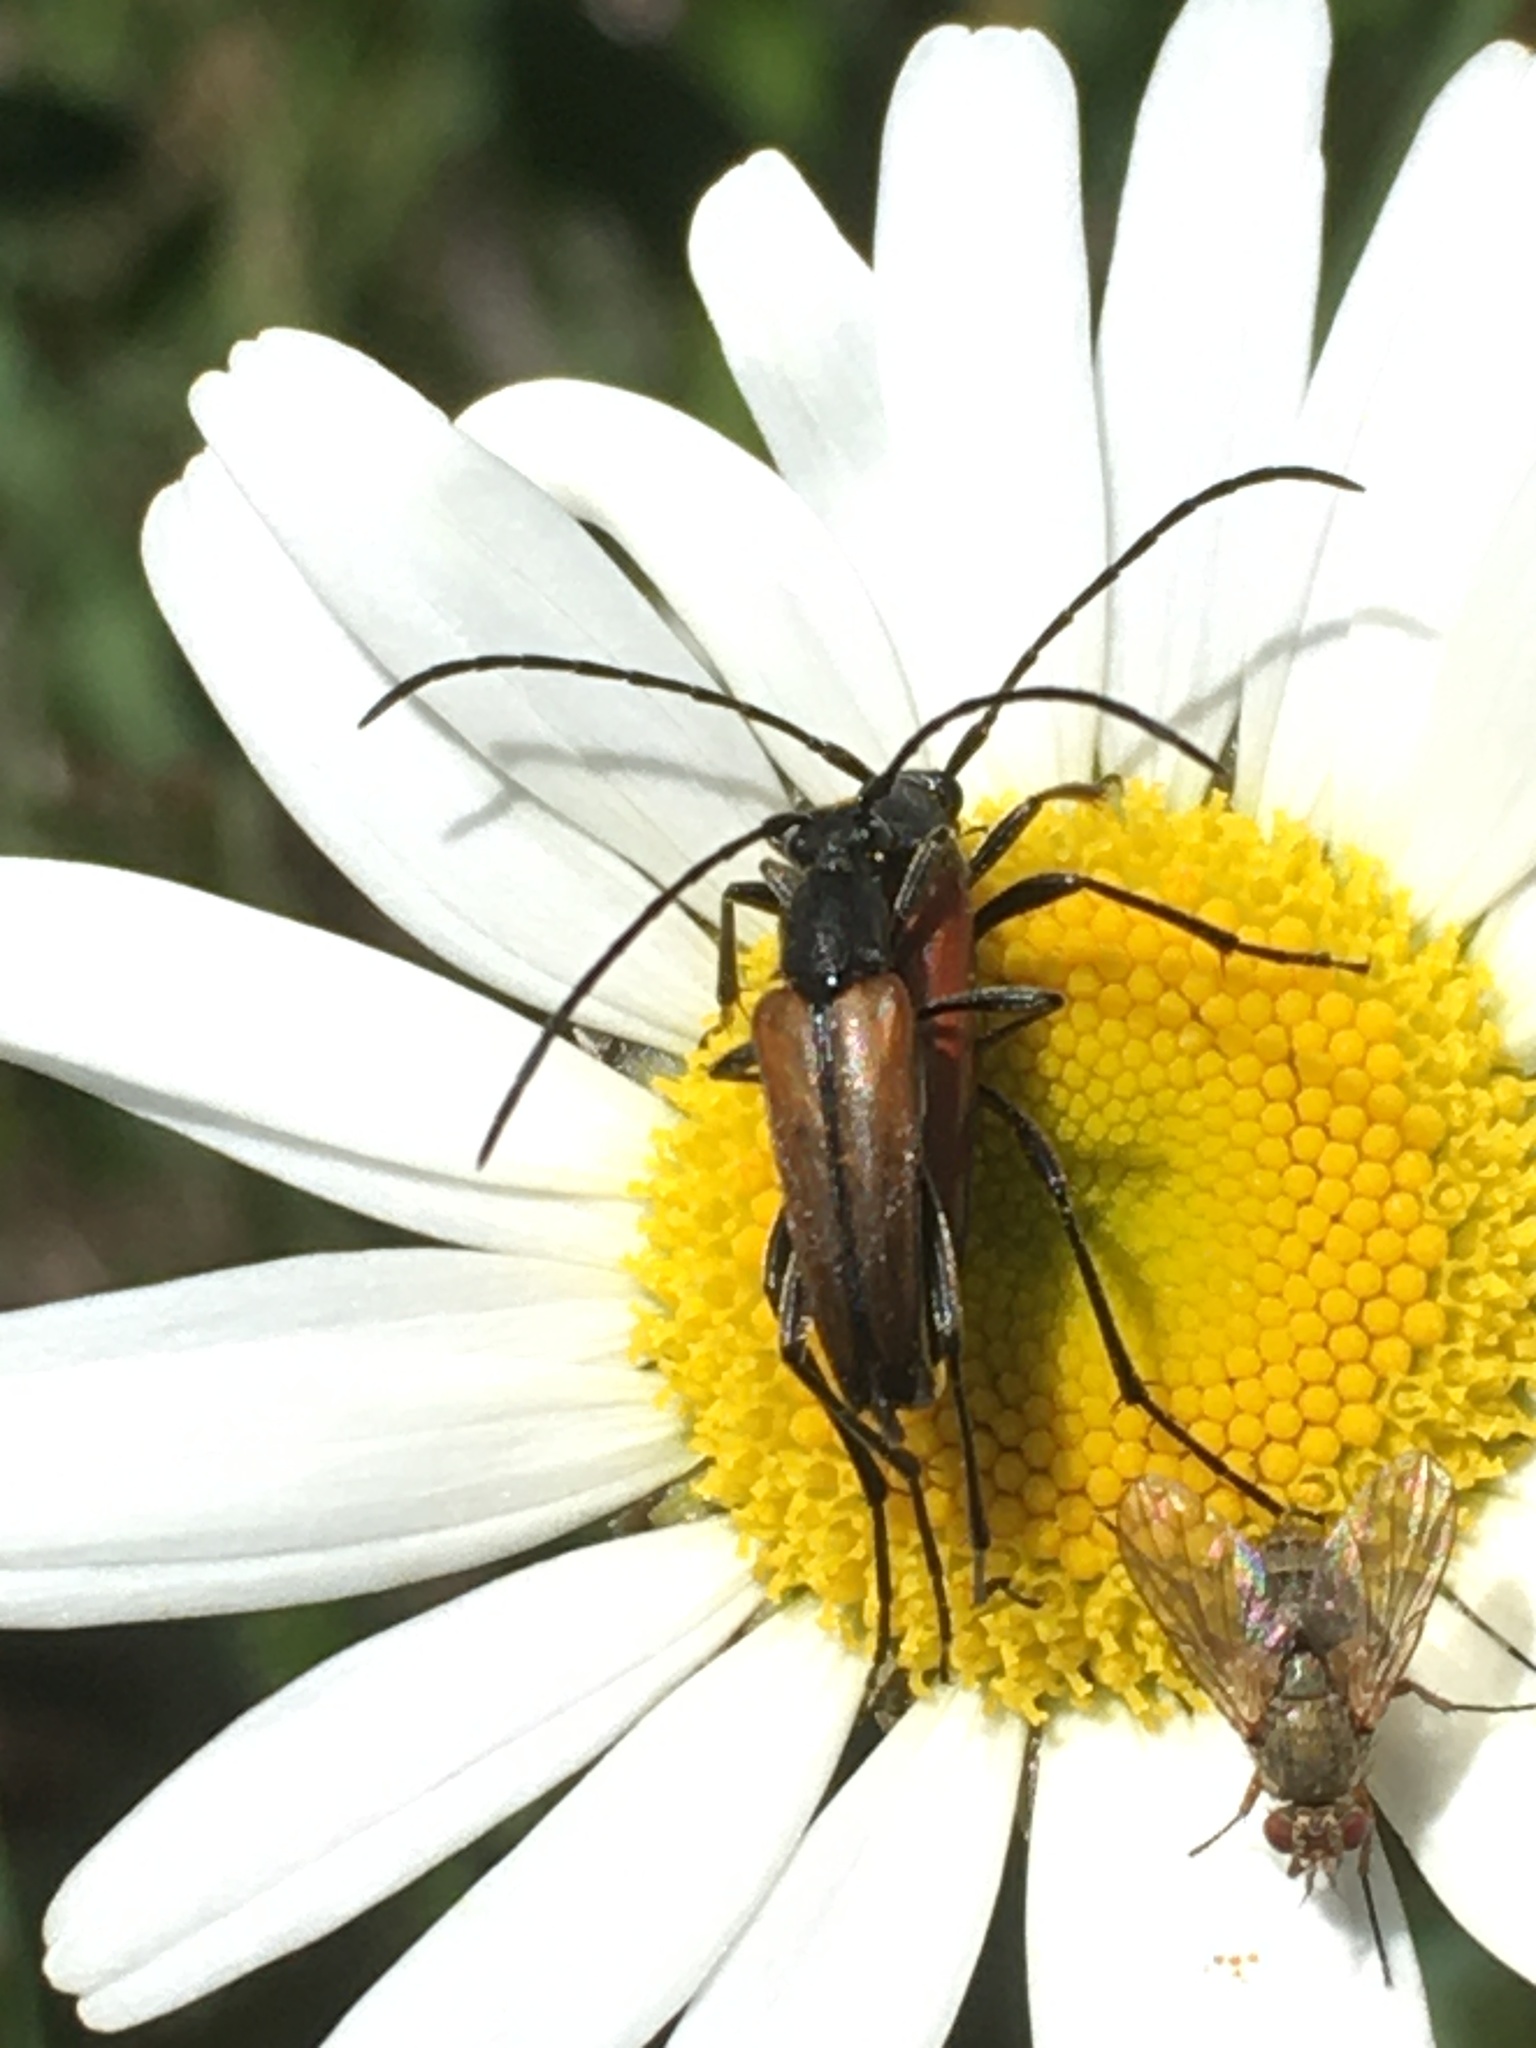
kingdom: Animalia
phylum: Arthropoda
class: Insecta
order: Coleoptera
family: Cerambycidae
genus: Stenurella
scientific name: Stenurella melanura
